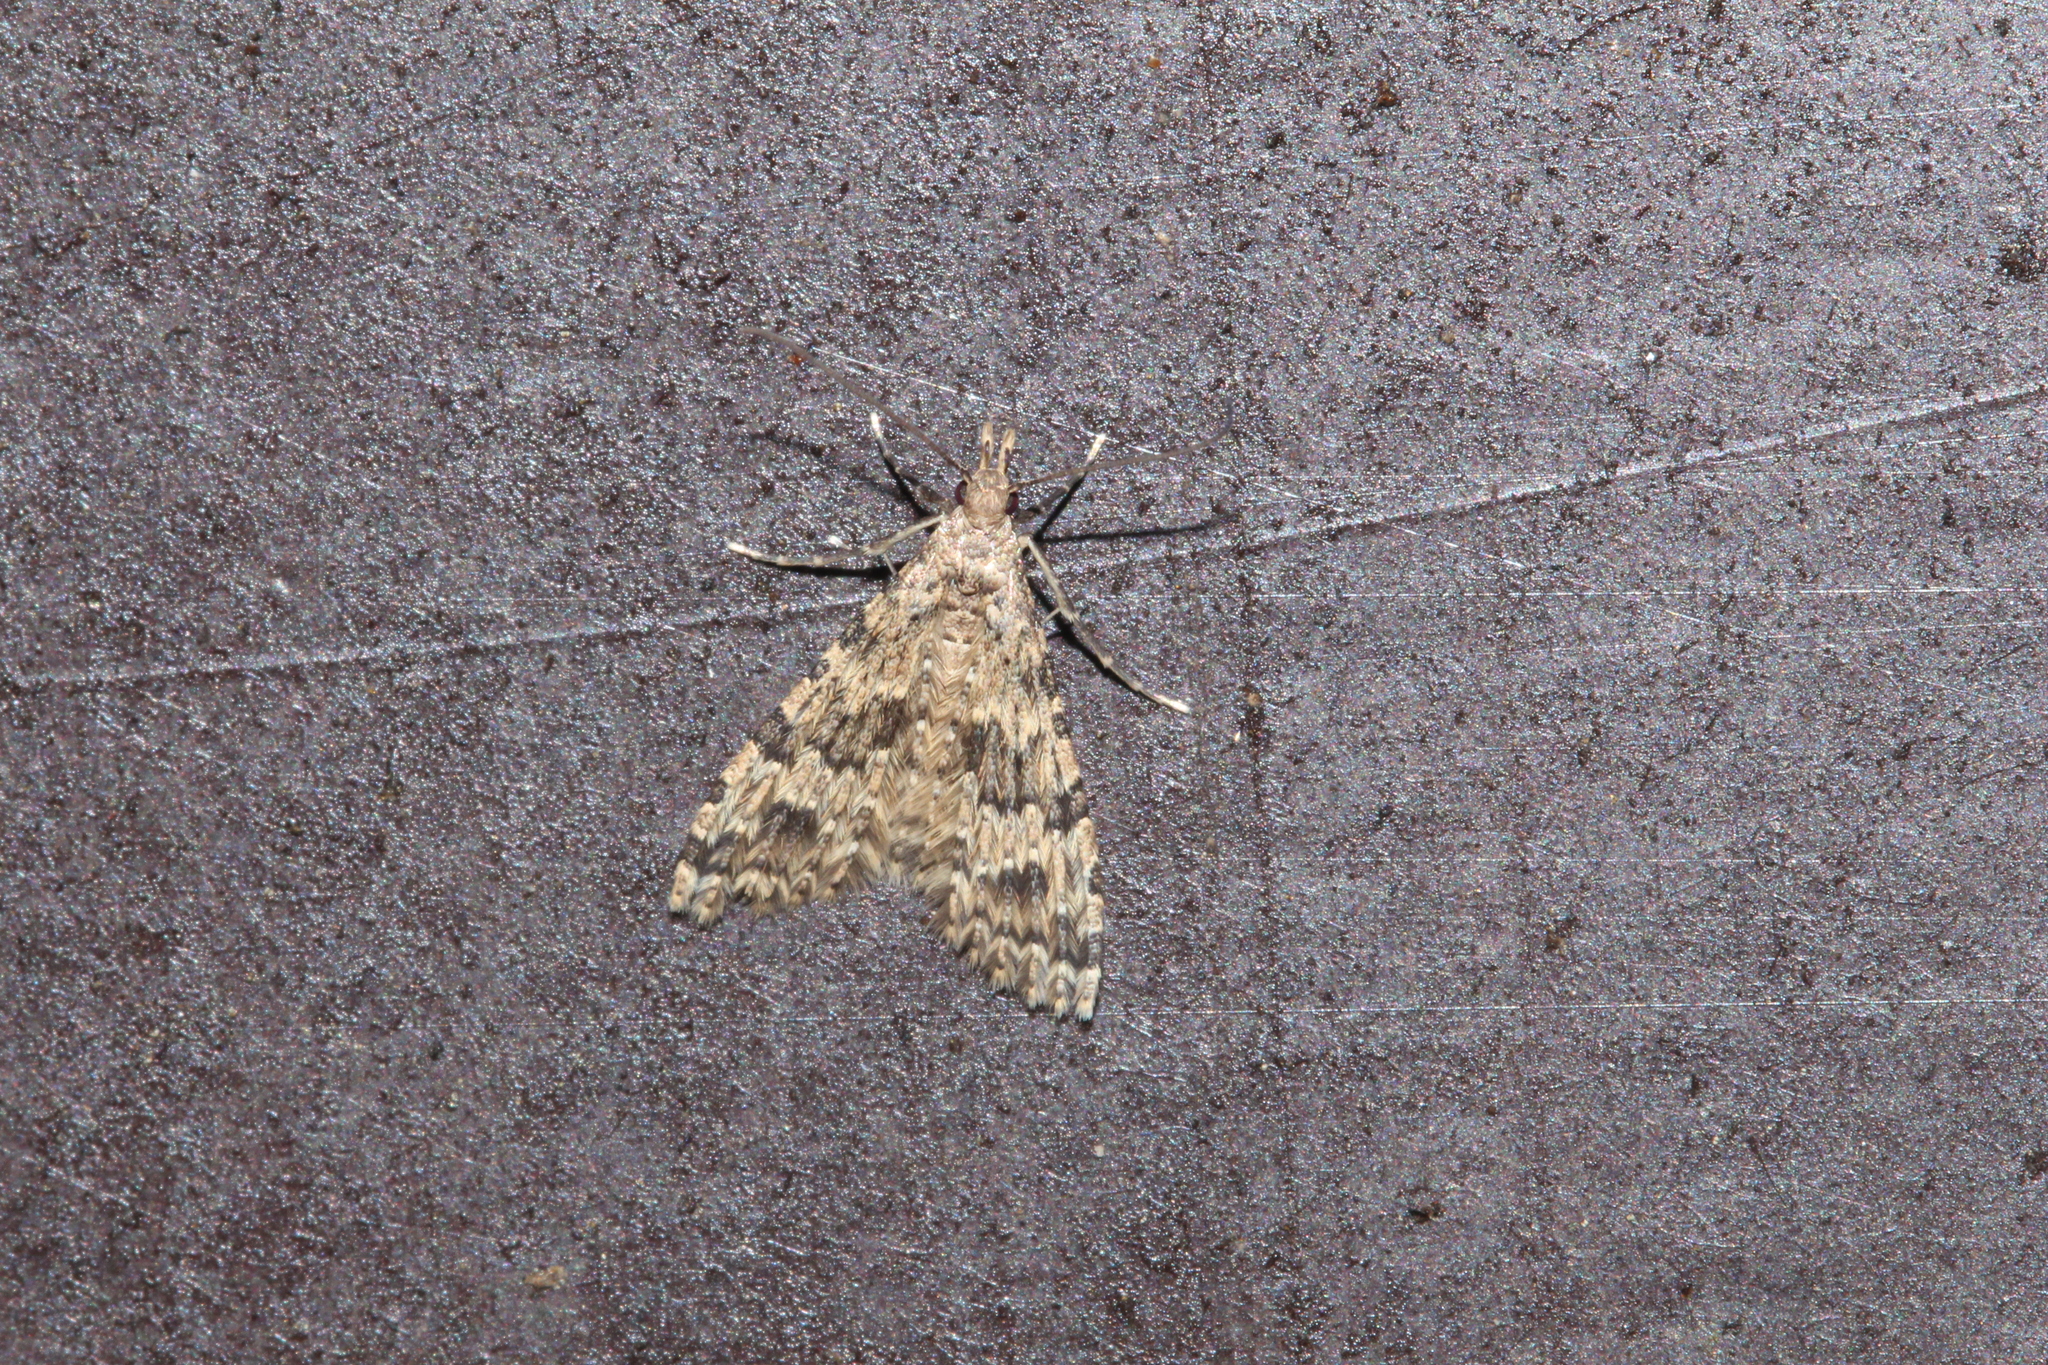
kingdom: Animalia
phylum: Arthropoda
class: Insecta
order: Lepidoptera
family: Alucitidae
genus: Alucita
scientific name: Alucita hexadactyla
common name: Twenty-plume moth
